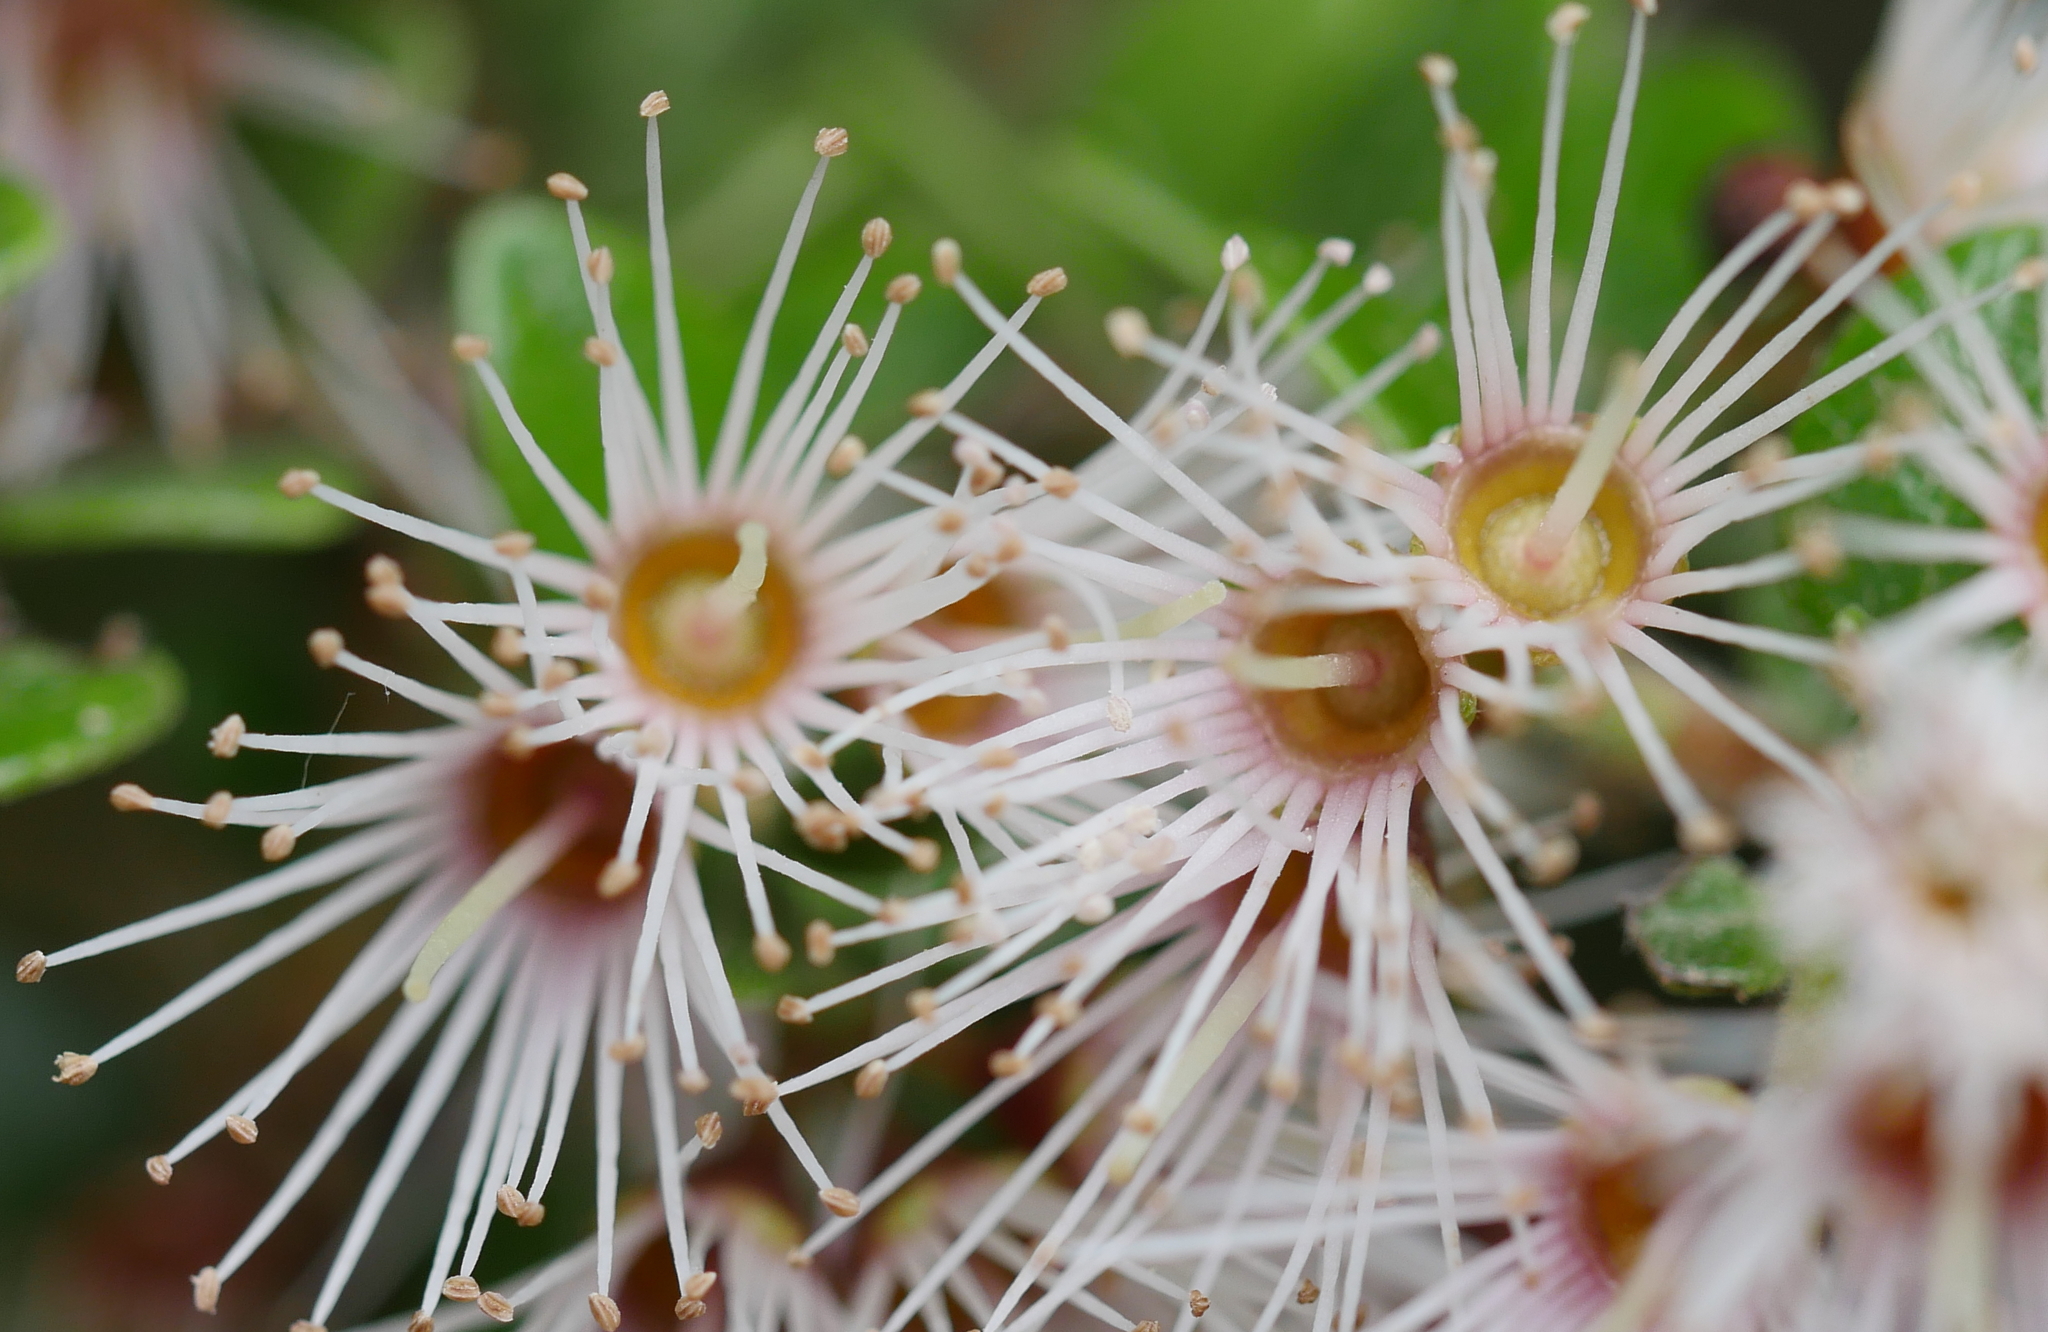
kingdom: Plantae
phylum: Tracheophyta
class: Magnoliopsida
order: Myrtales
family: Myrtaceae
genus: Metrosideros
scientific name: Metrosideros perforata
